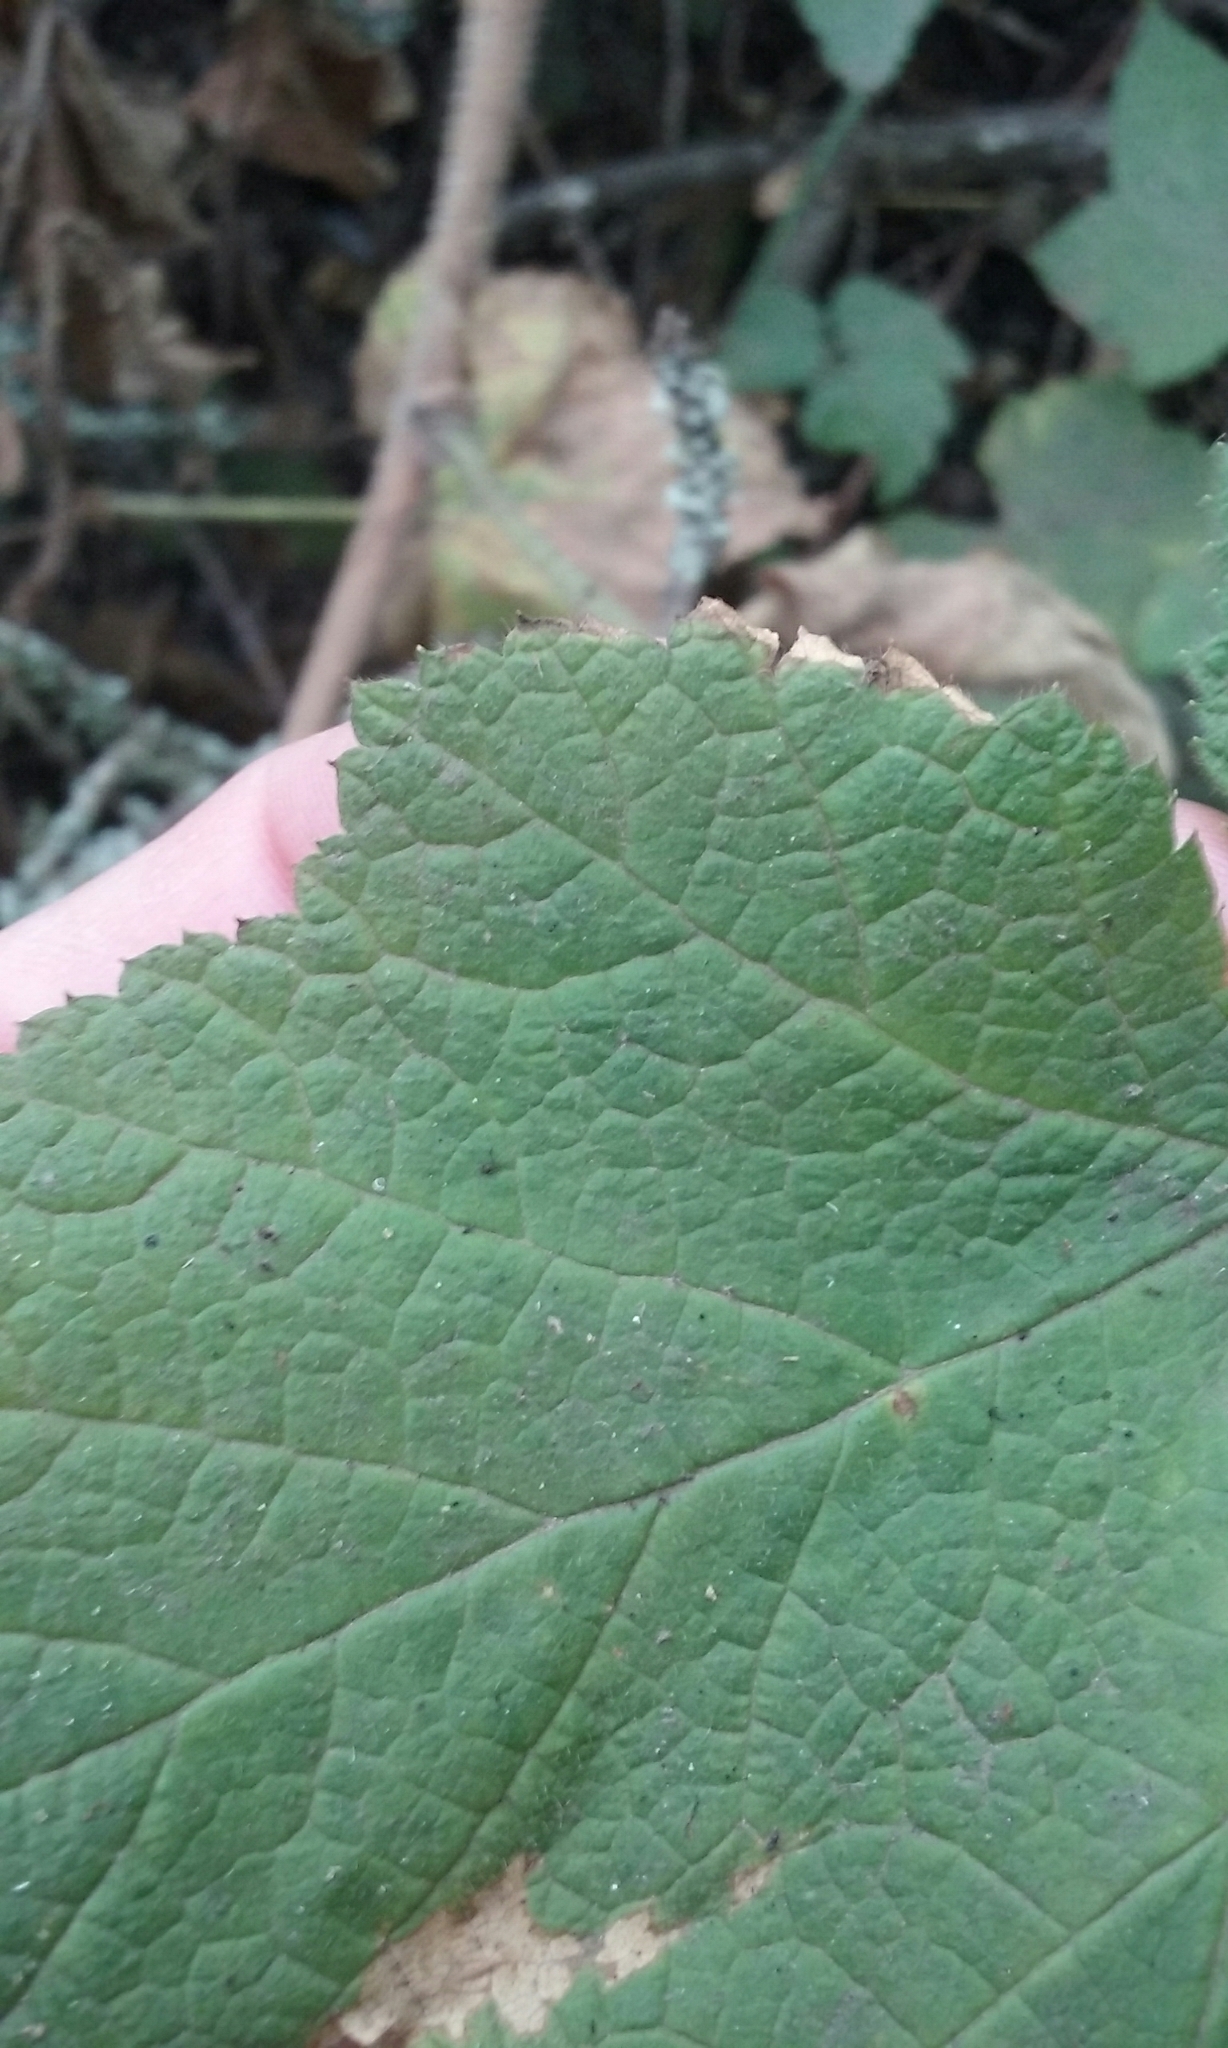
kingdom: Plantae
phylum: Tracheophyta
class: Magnoliopsida
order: Rosales
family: Rosaceae
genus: Rubus
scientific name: Rubus parviflorus
